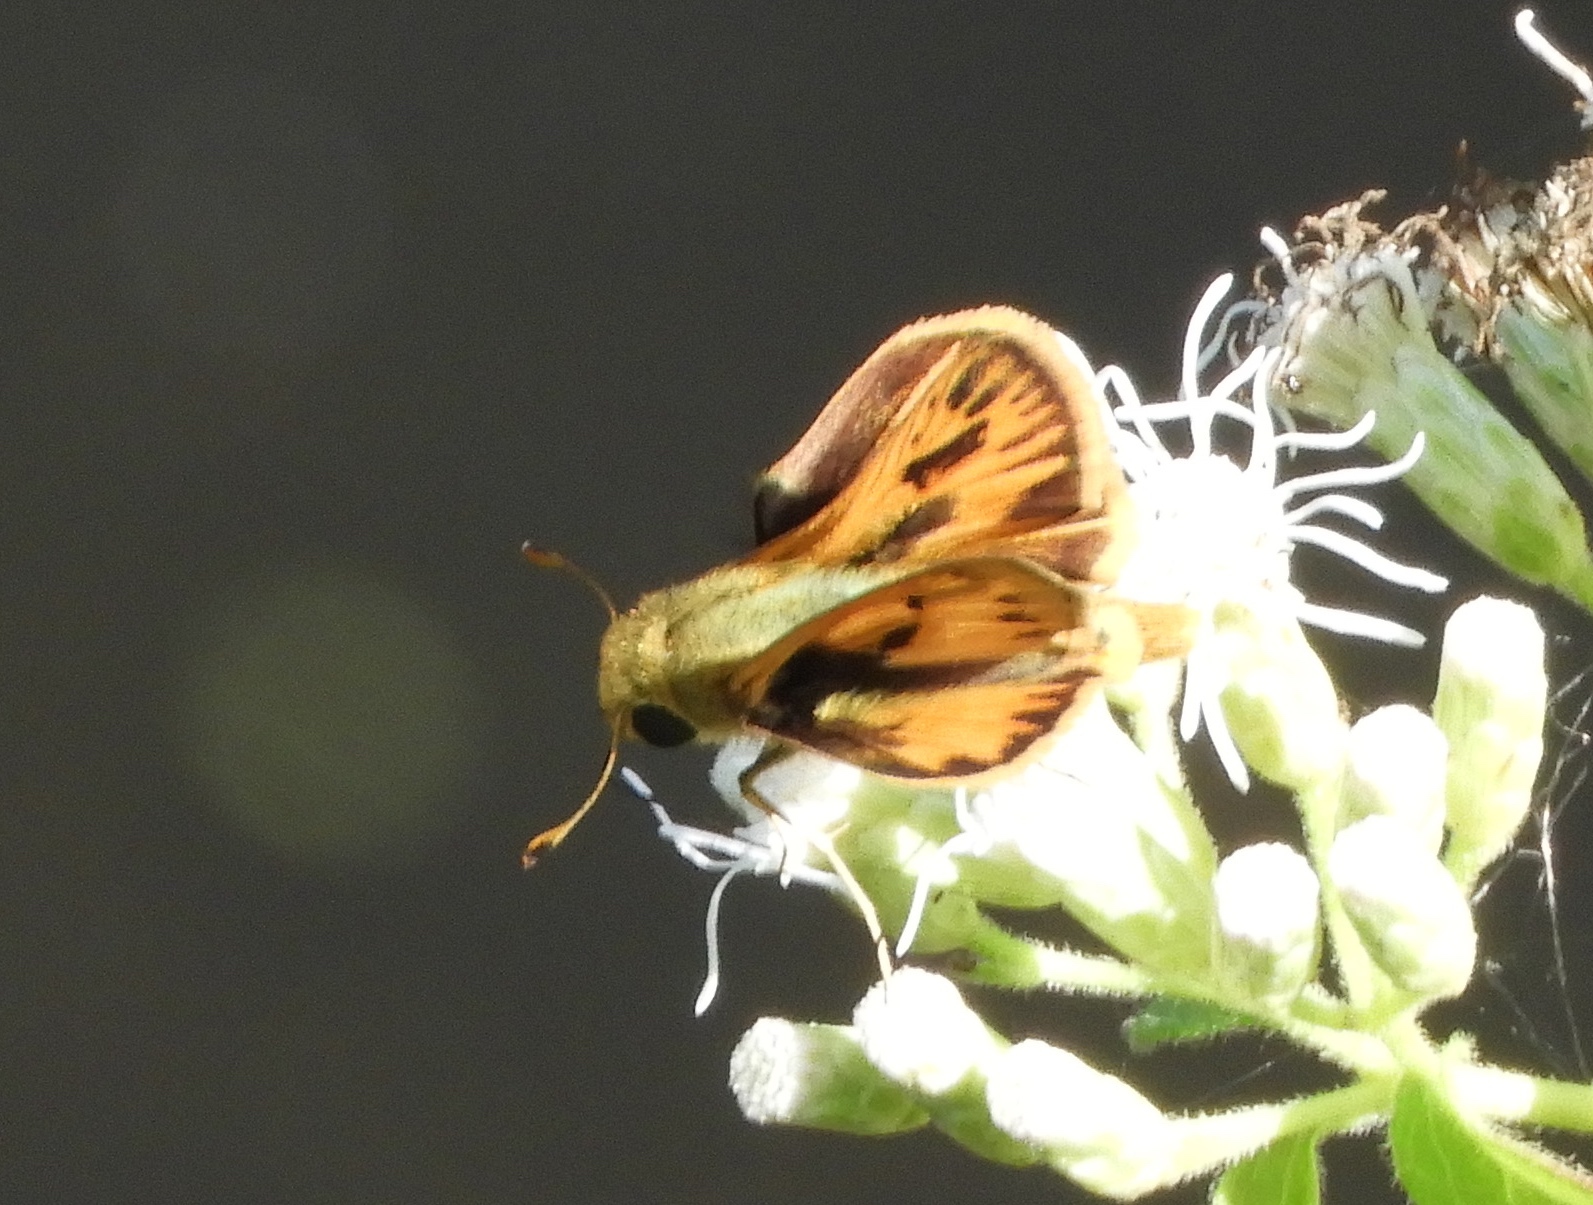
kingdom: Animalia
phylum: Arthropoda
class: Insecta
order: Lepidoptera
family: Hesperiidae
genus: Hylephila
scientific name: Hylephila phyleus
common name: Fiery skipper
